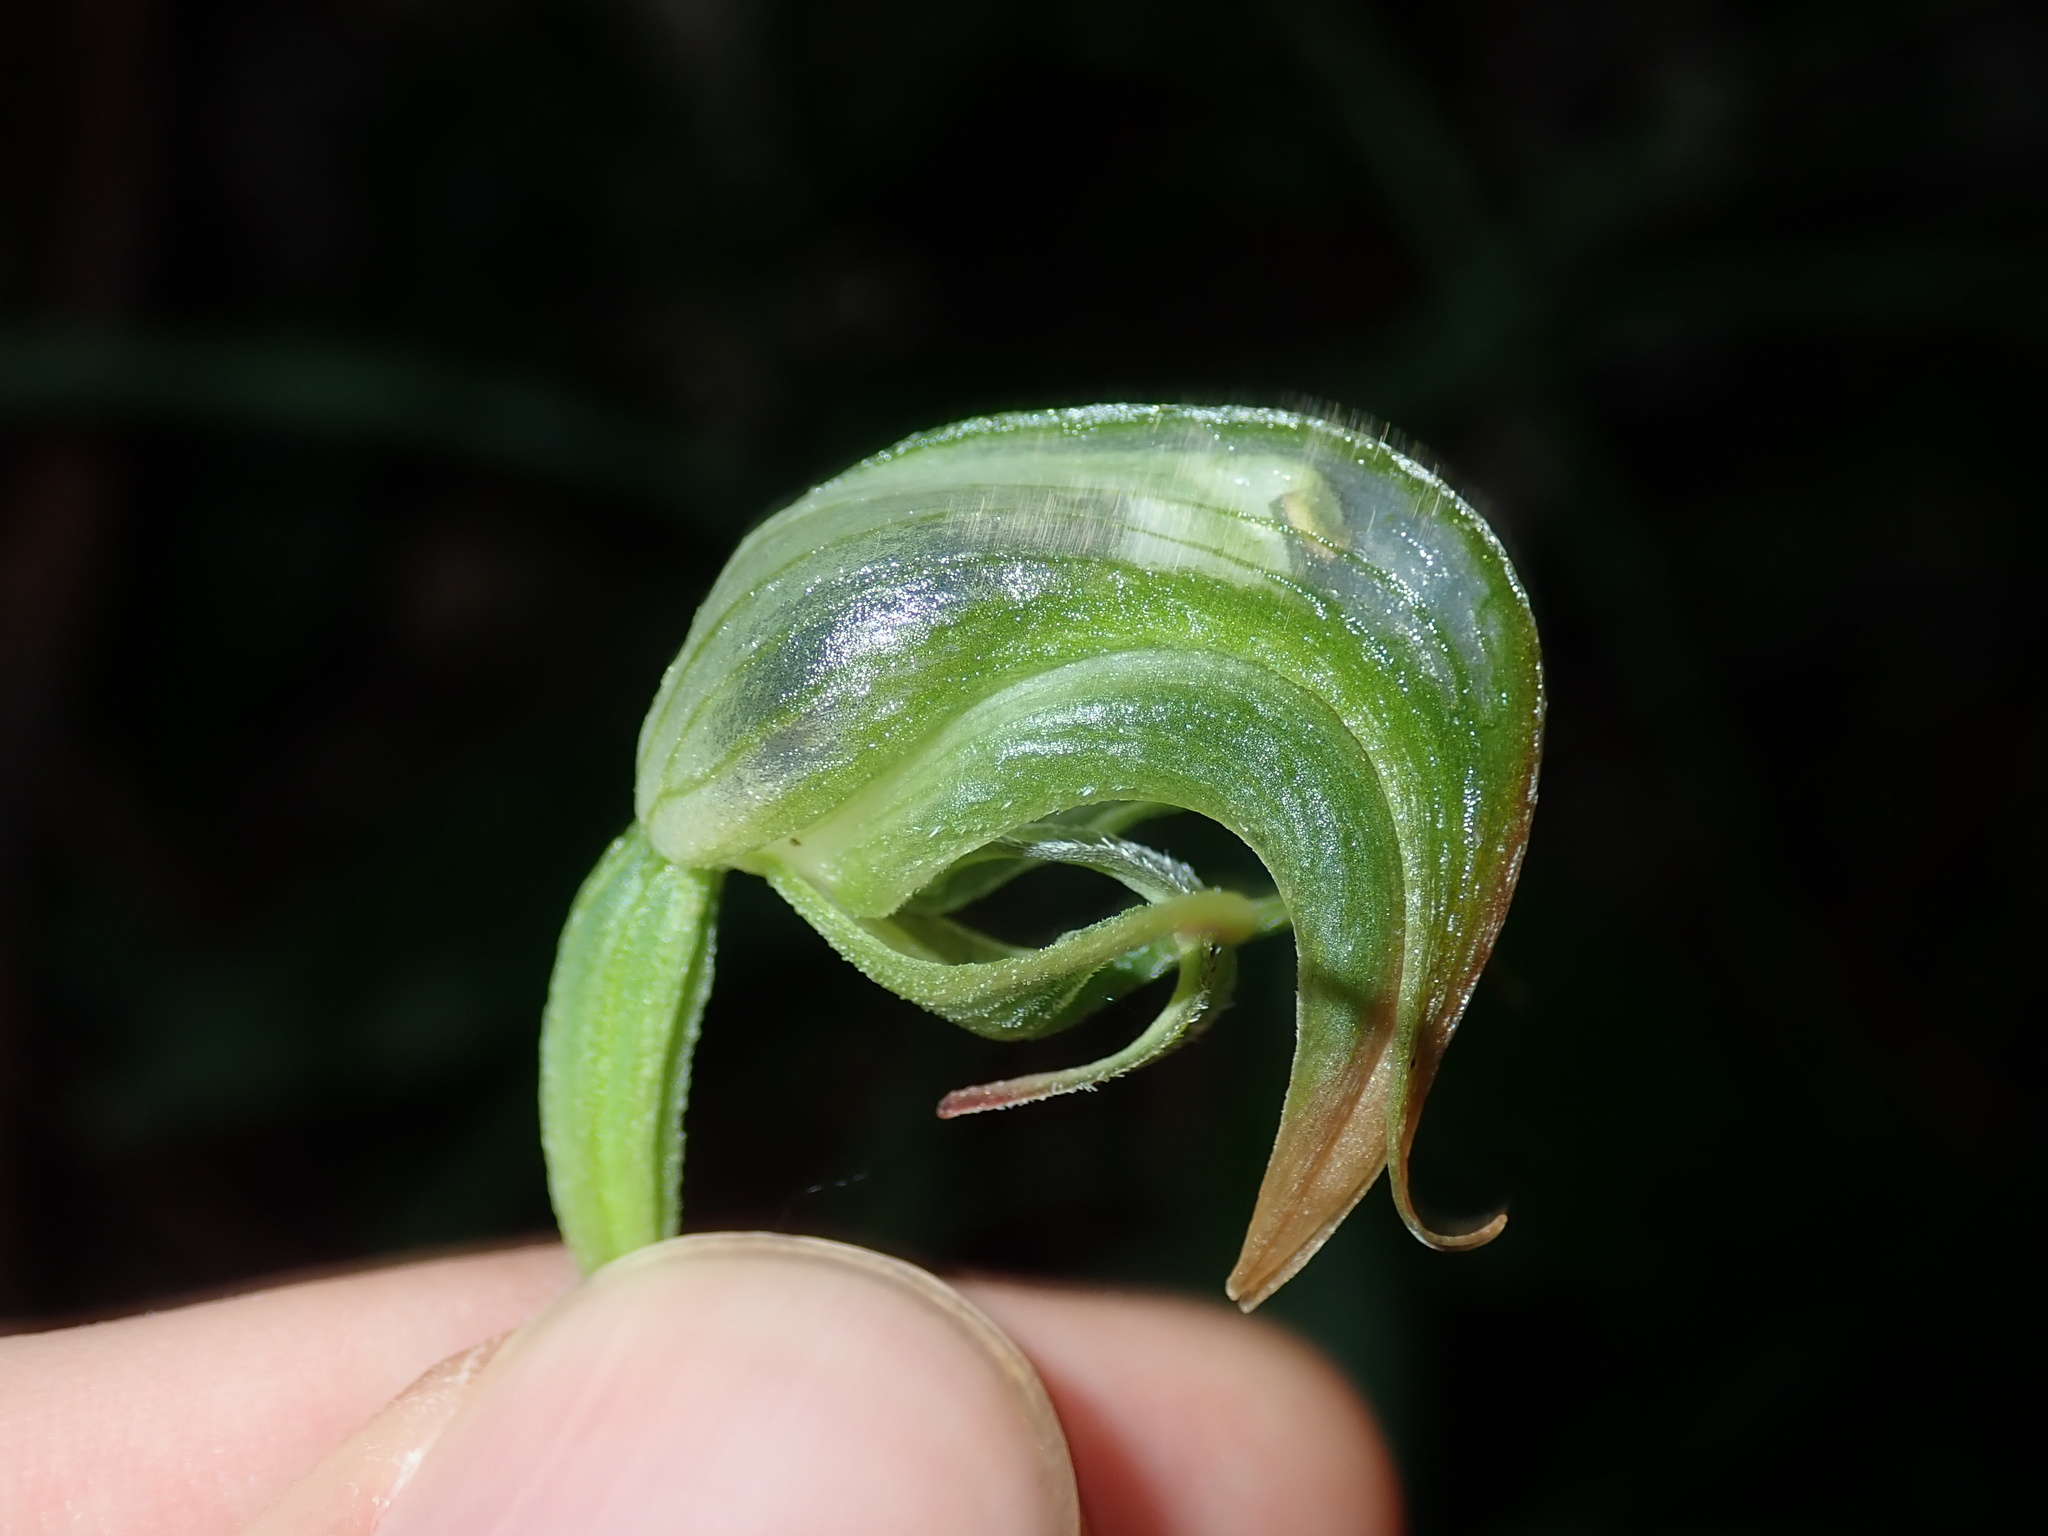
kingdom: Plantae
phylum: Tracheophyta
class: Liliopsida
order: Asparagales
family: Orchidaceae
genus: Pterostylis
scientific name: Pterostylis hispidula
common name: Box greenhood
